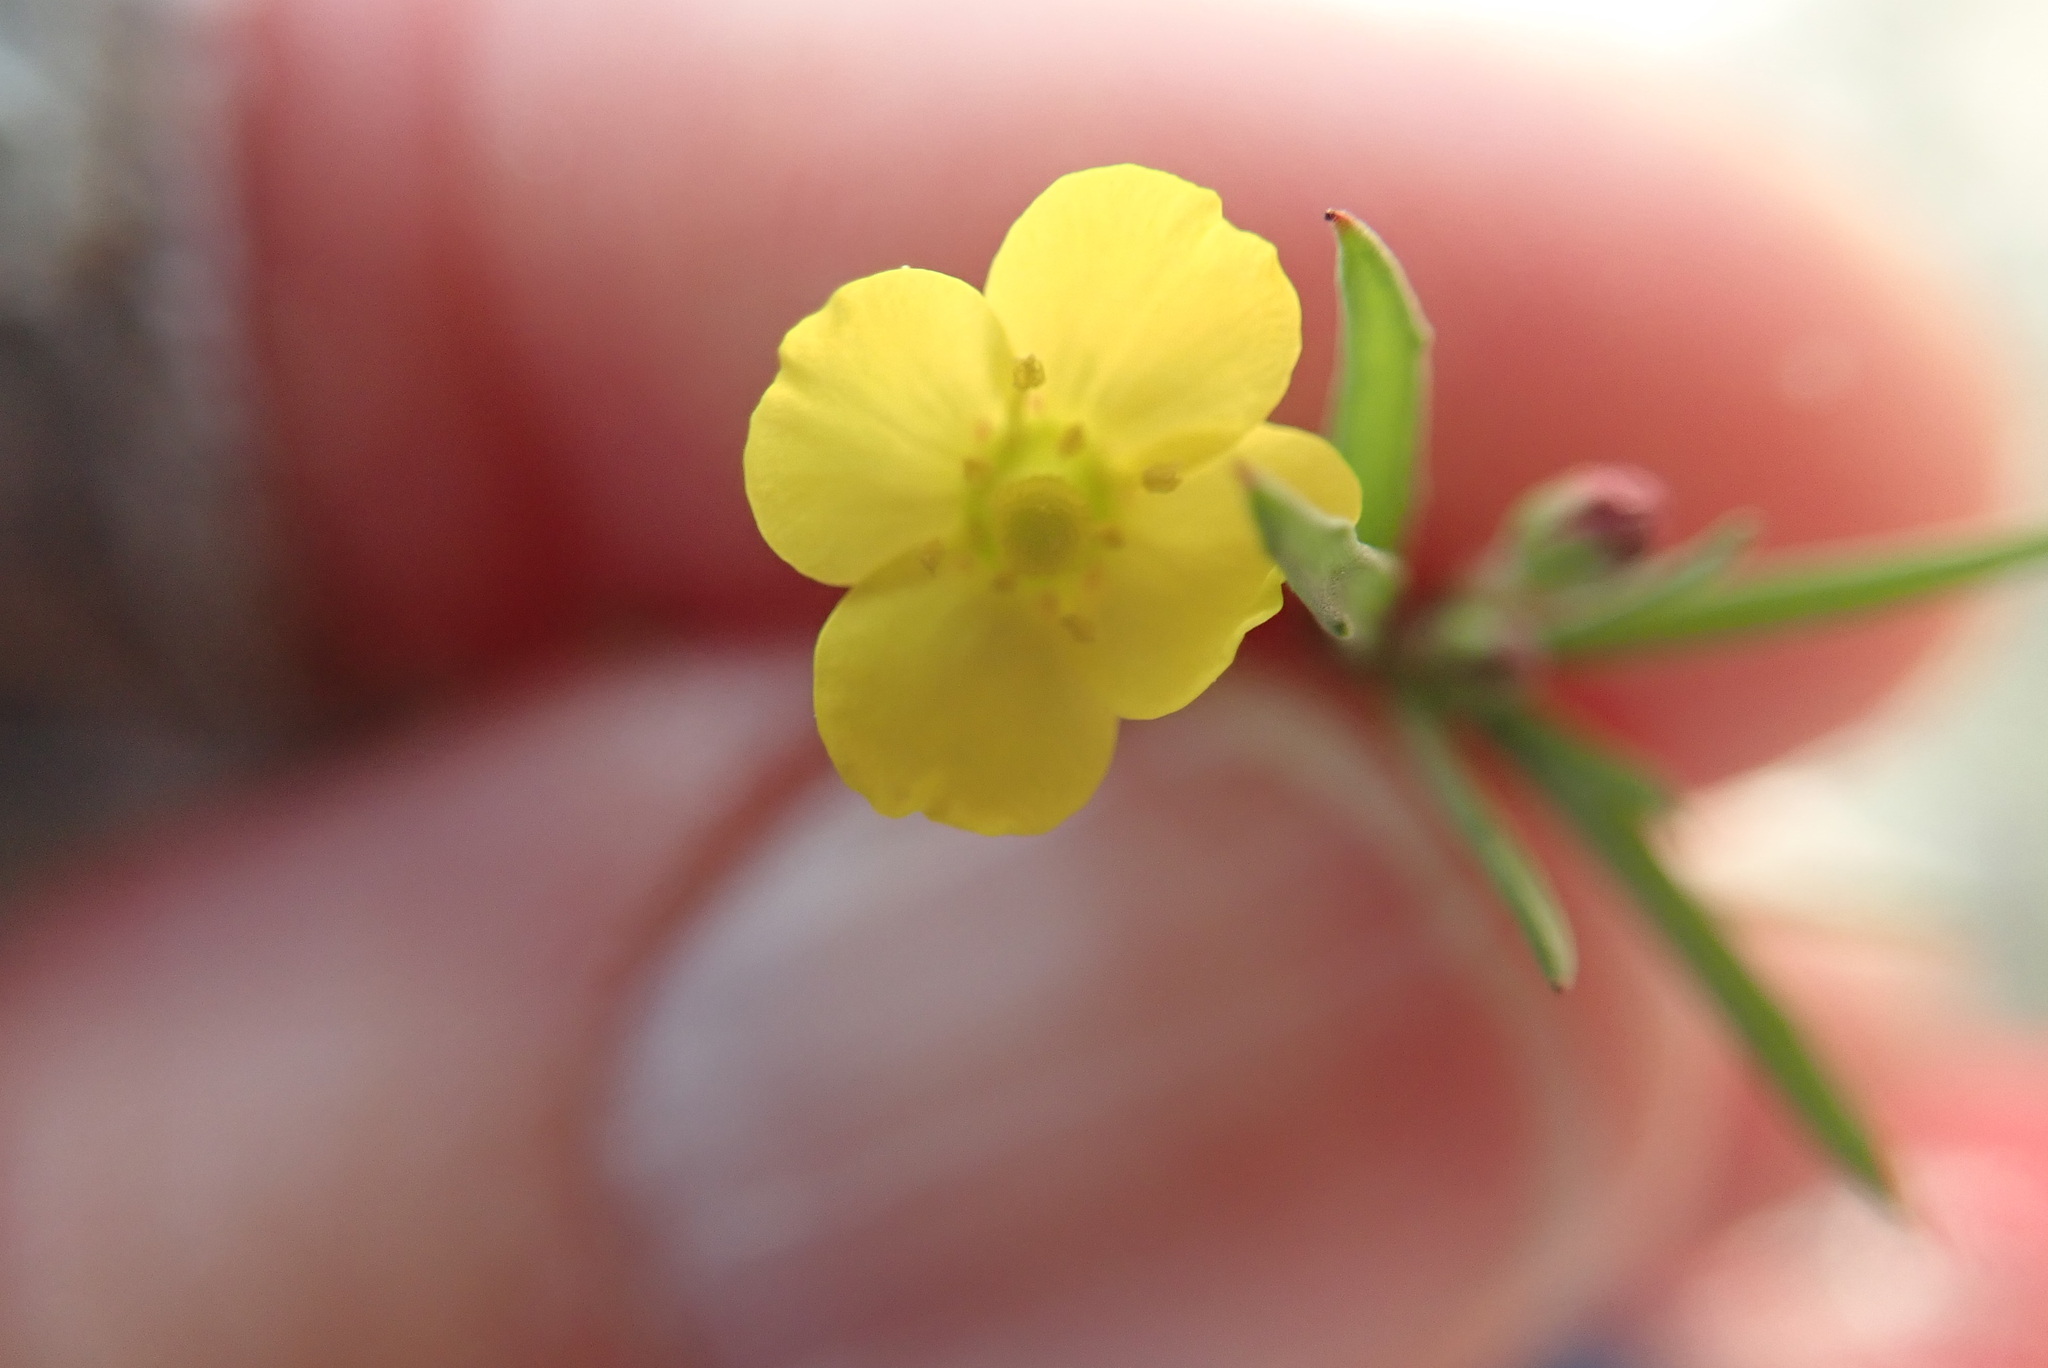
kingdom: Plantae
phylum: Tracheophyta
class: Magnoliopsida
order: Myrtales
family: Onagraceae
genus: Camissonia
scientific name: Camissonia strigulosa
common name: Contorted-primrose
